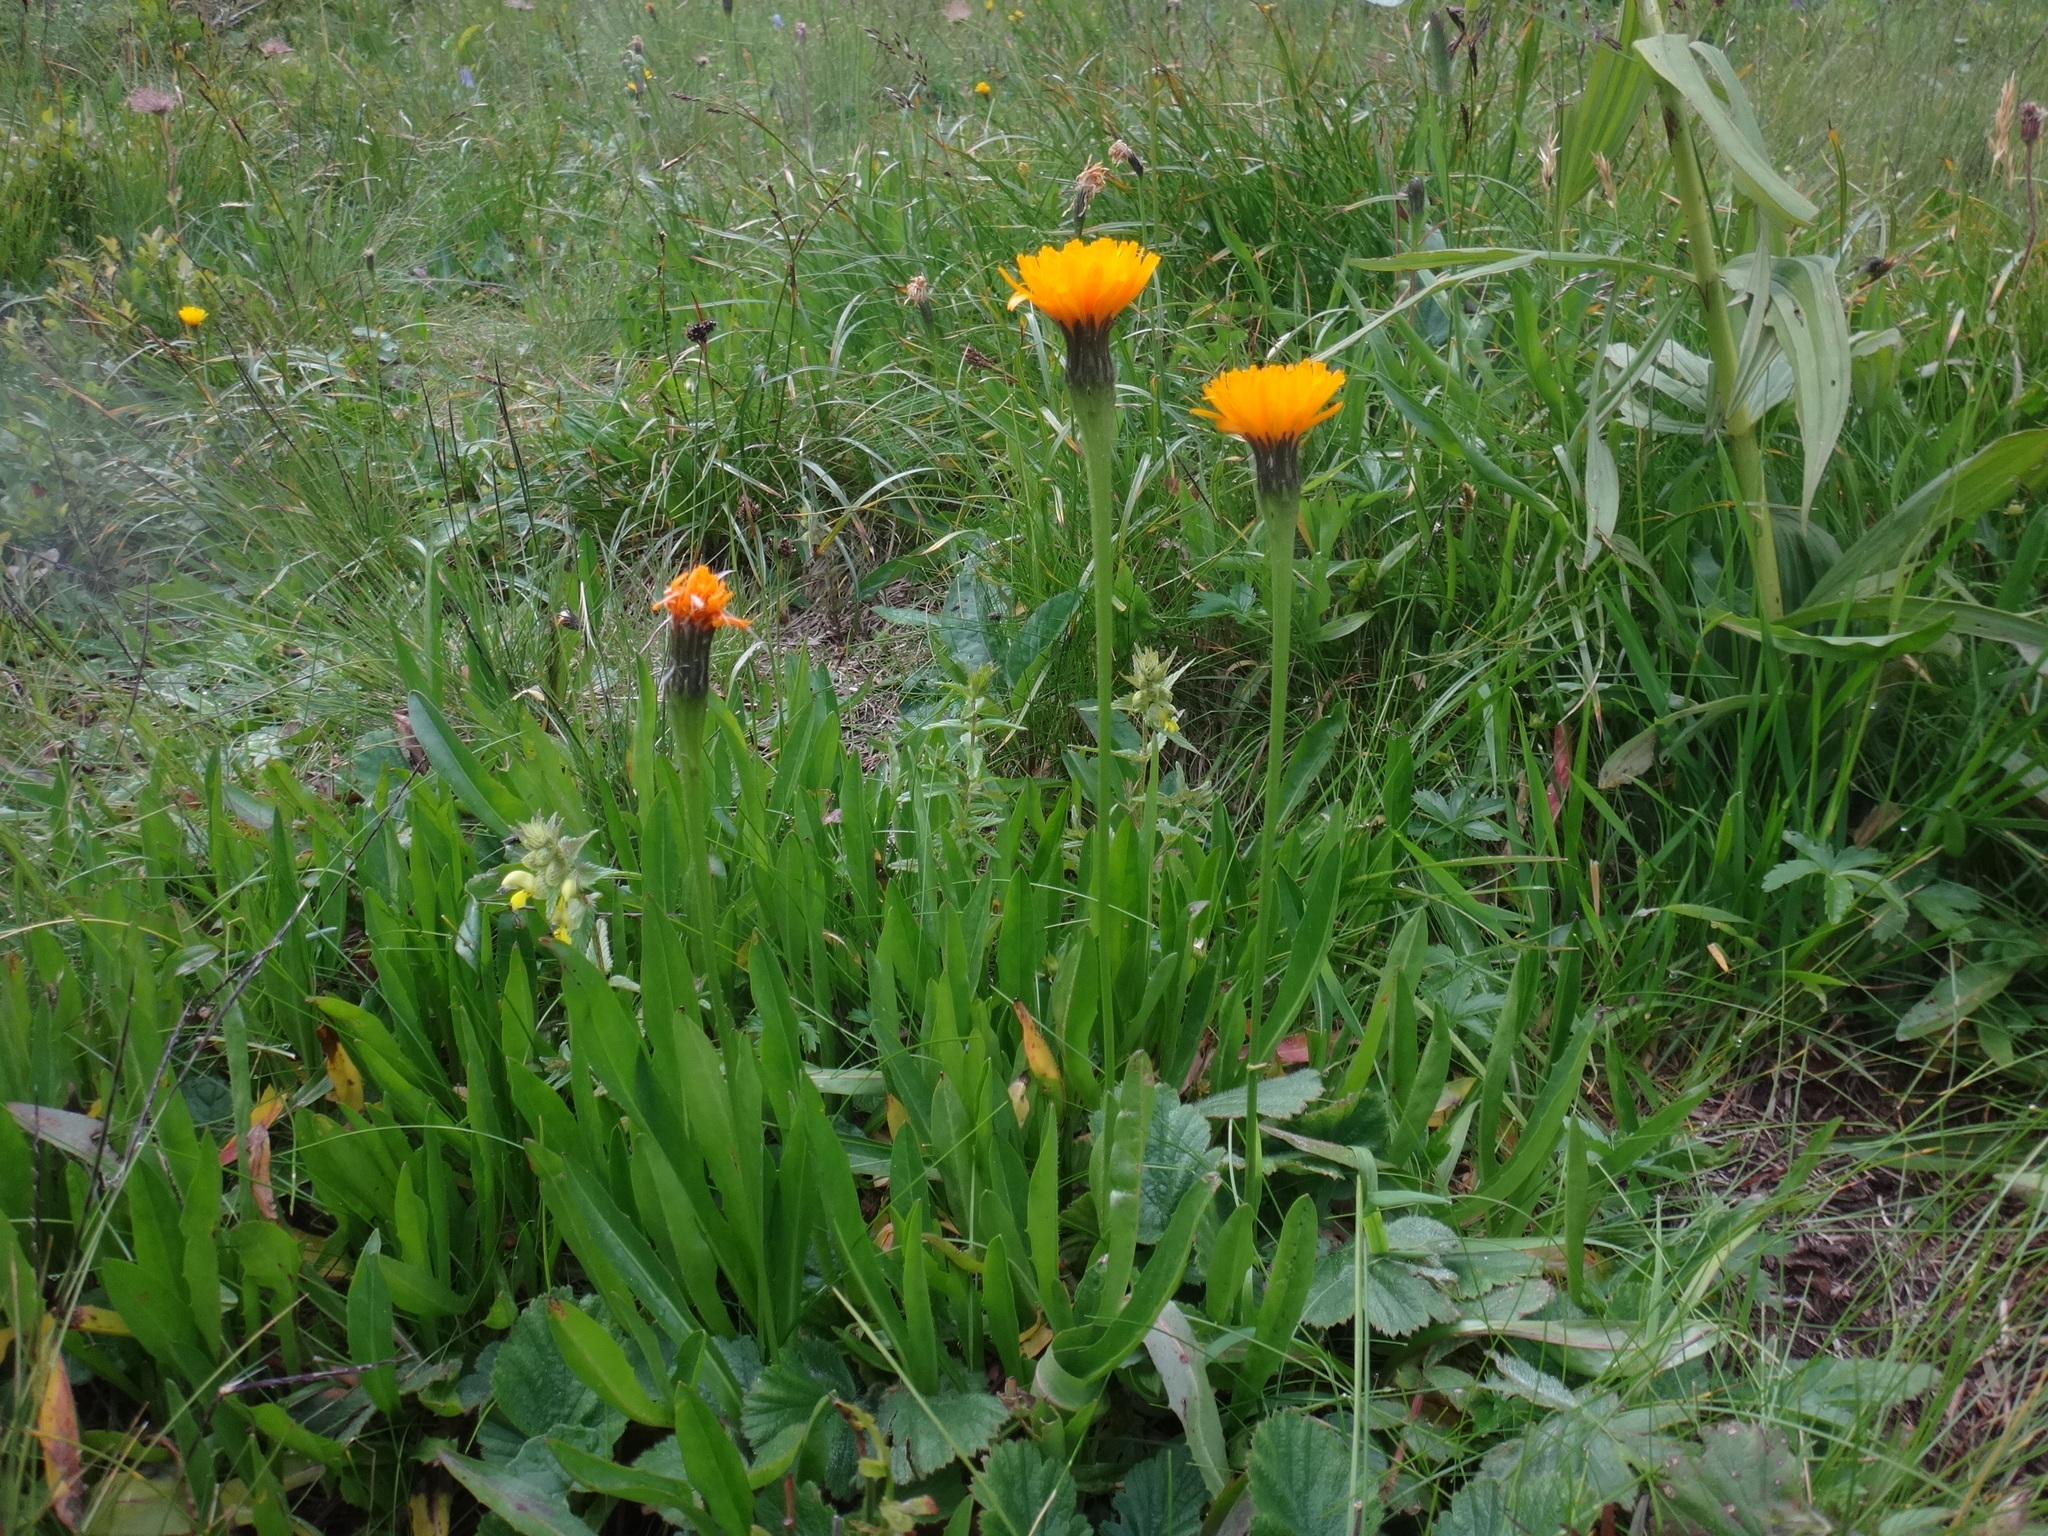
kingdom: Plantae
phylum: Tracheophyta
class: Magnoliopsida
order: Asterales
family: Asteraceae
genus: Scorzoneroides
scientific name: Scorzoneroides crocea
